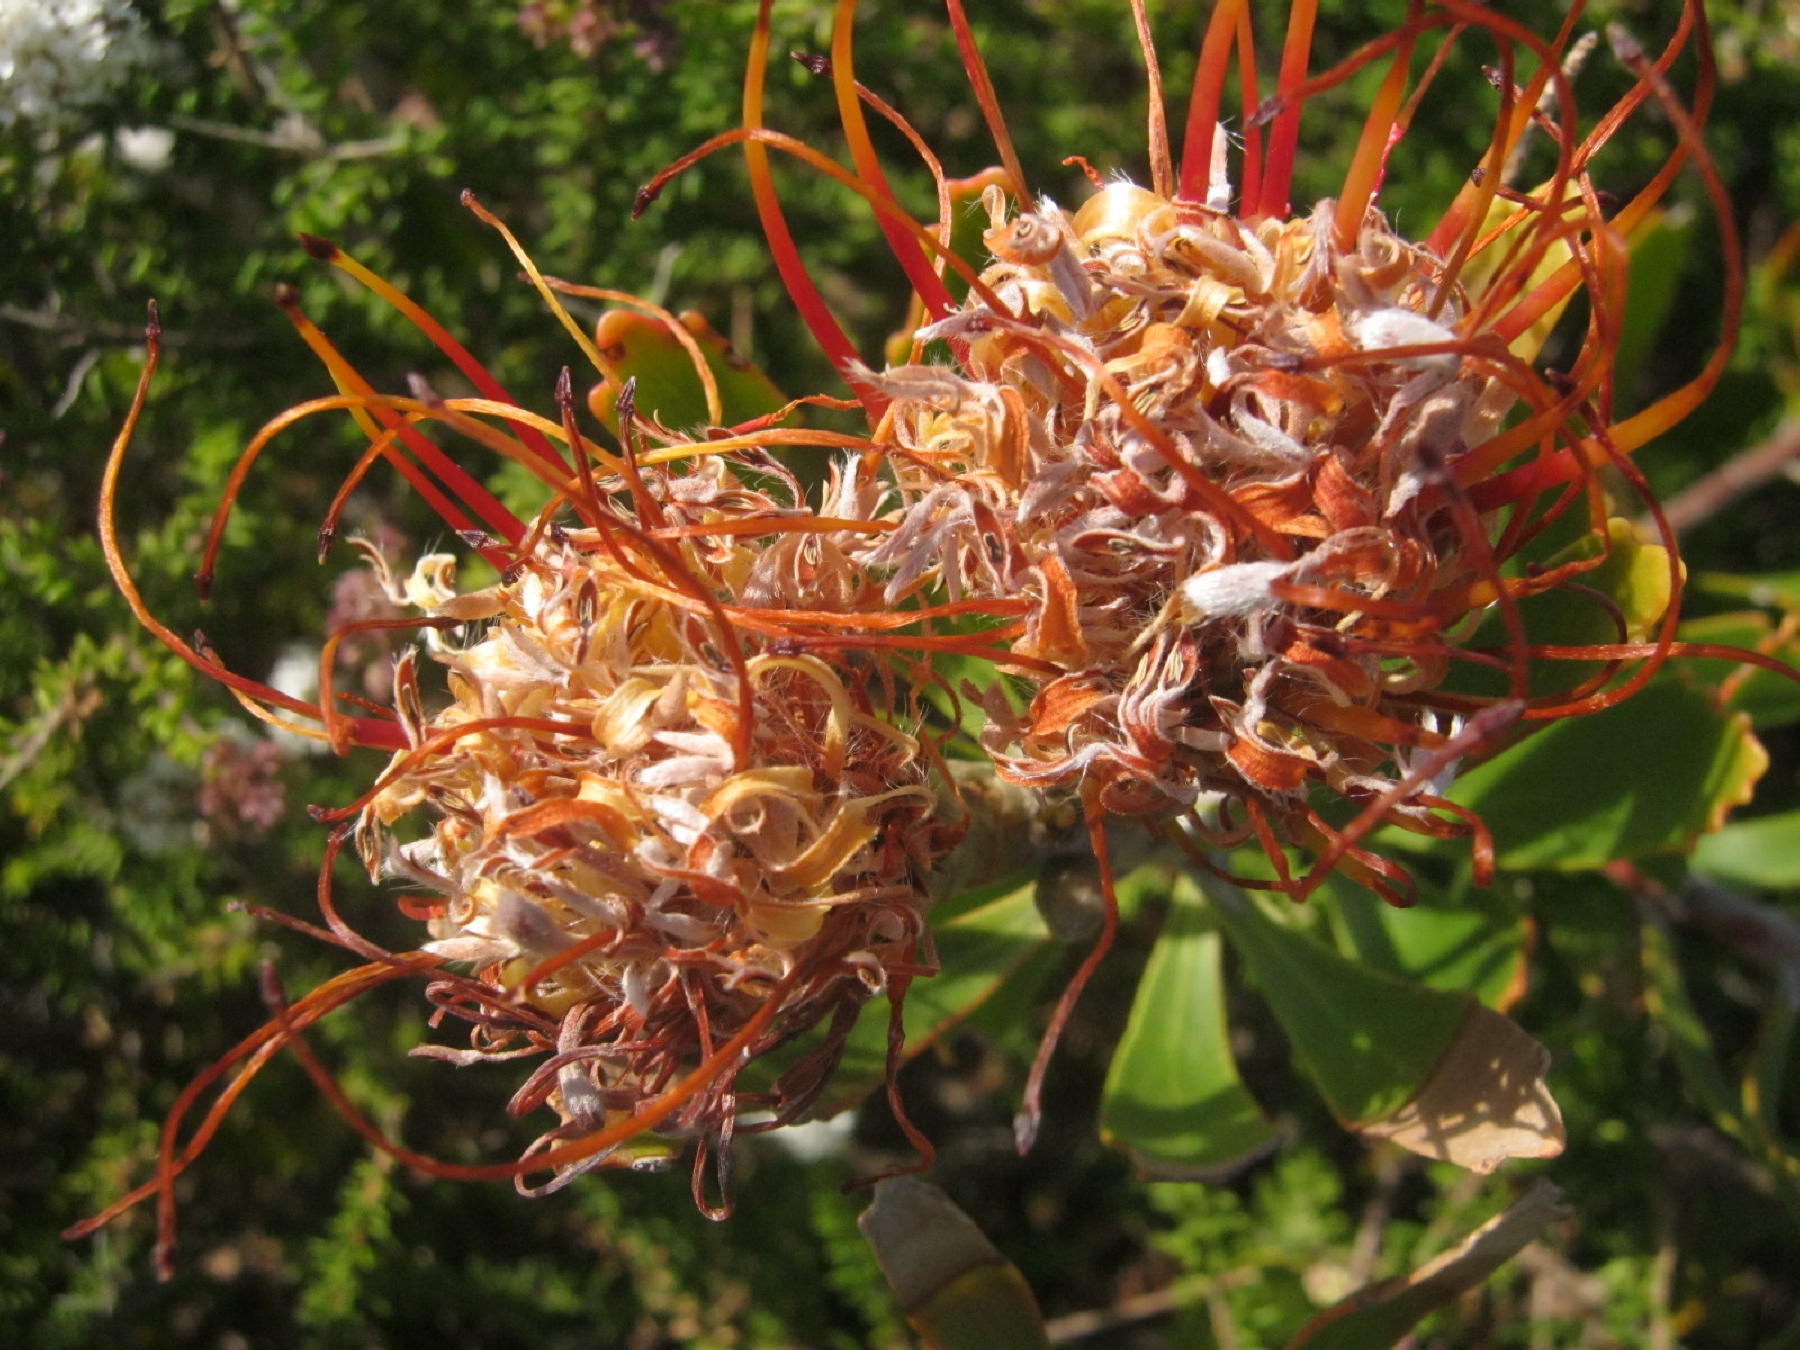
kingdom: Plantae
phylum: Tracheophyta
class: Magnoliopsida
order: Proteales
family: Proteaceae
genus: Leucospermum
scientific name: Leucospermum cuneiforme
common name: Common pincushion
